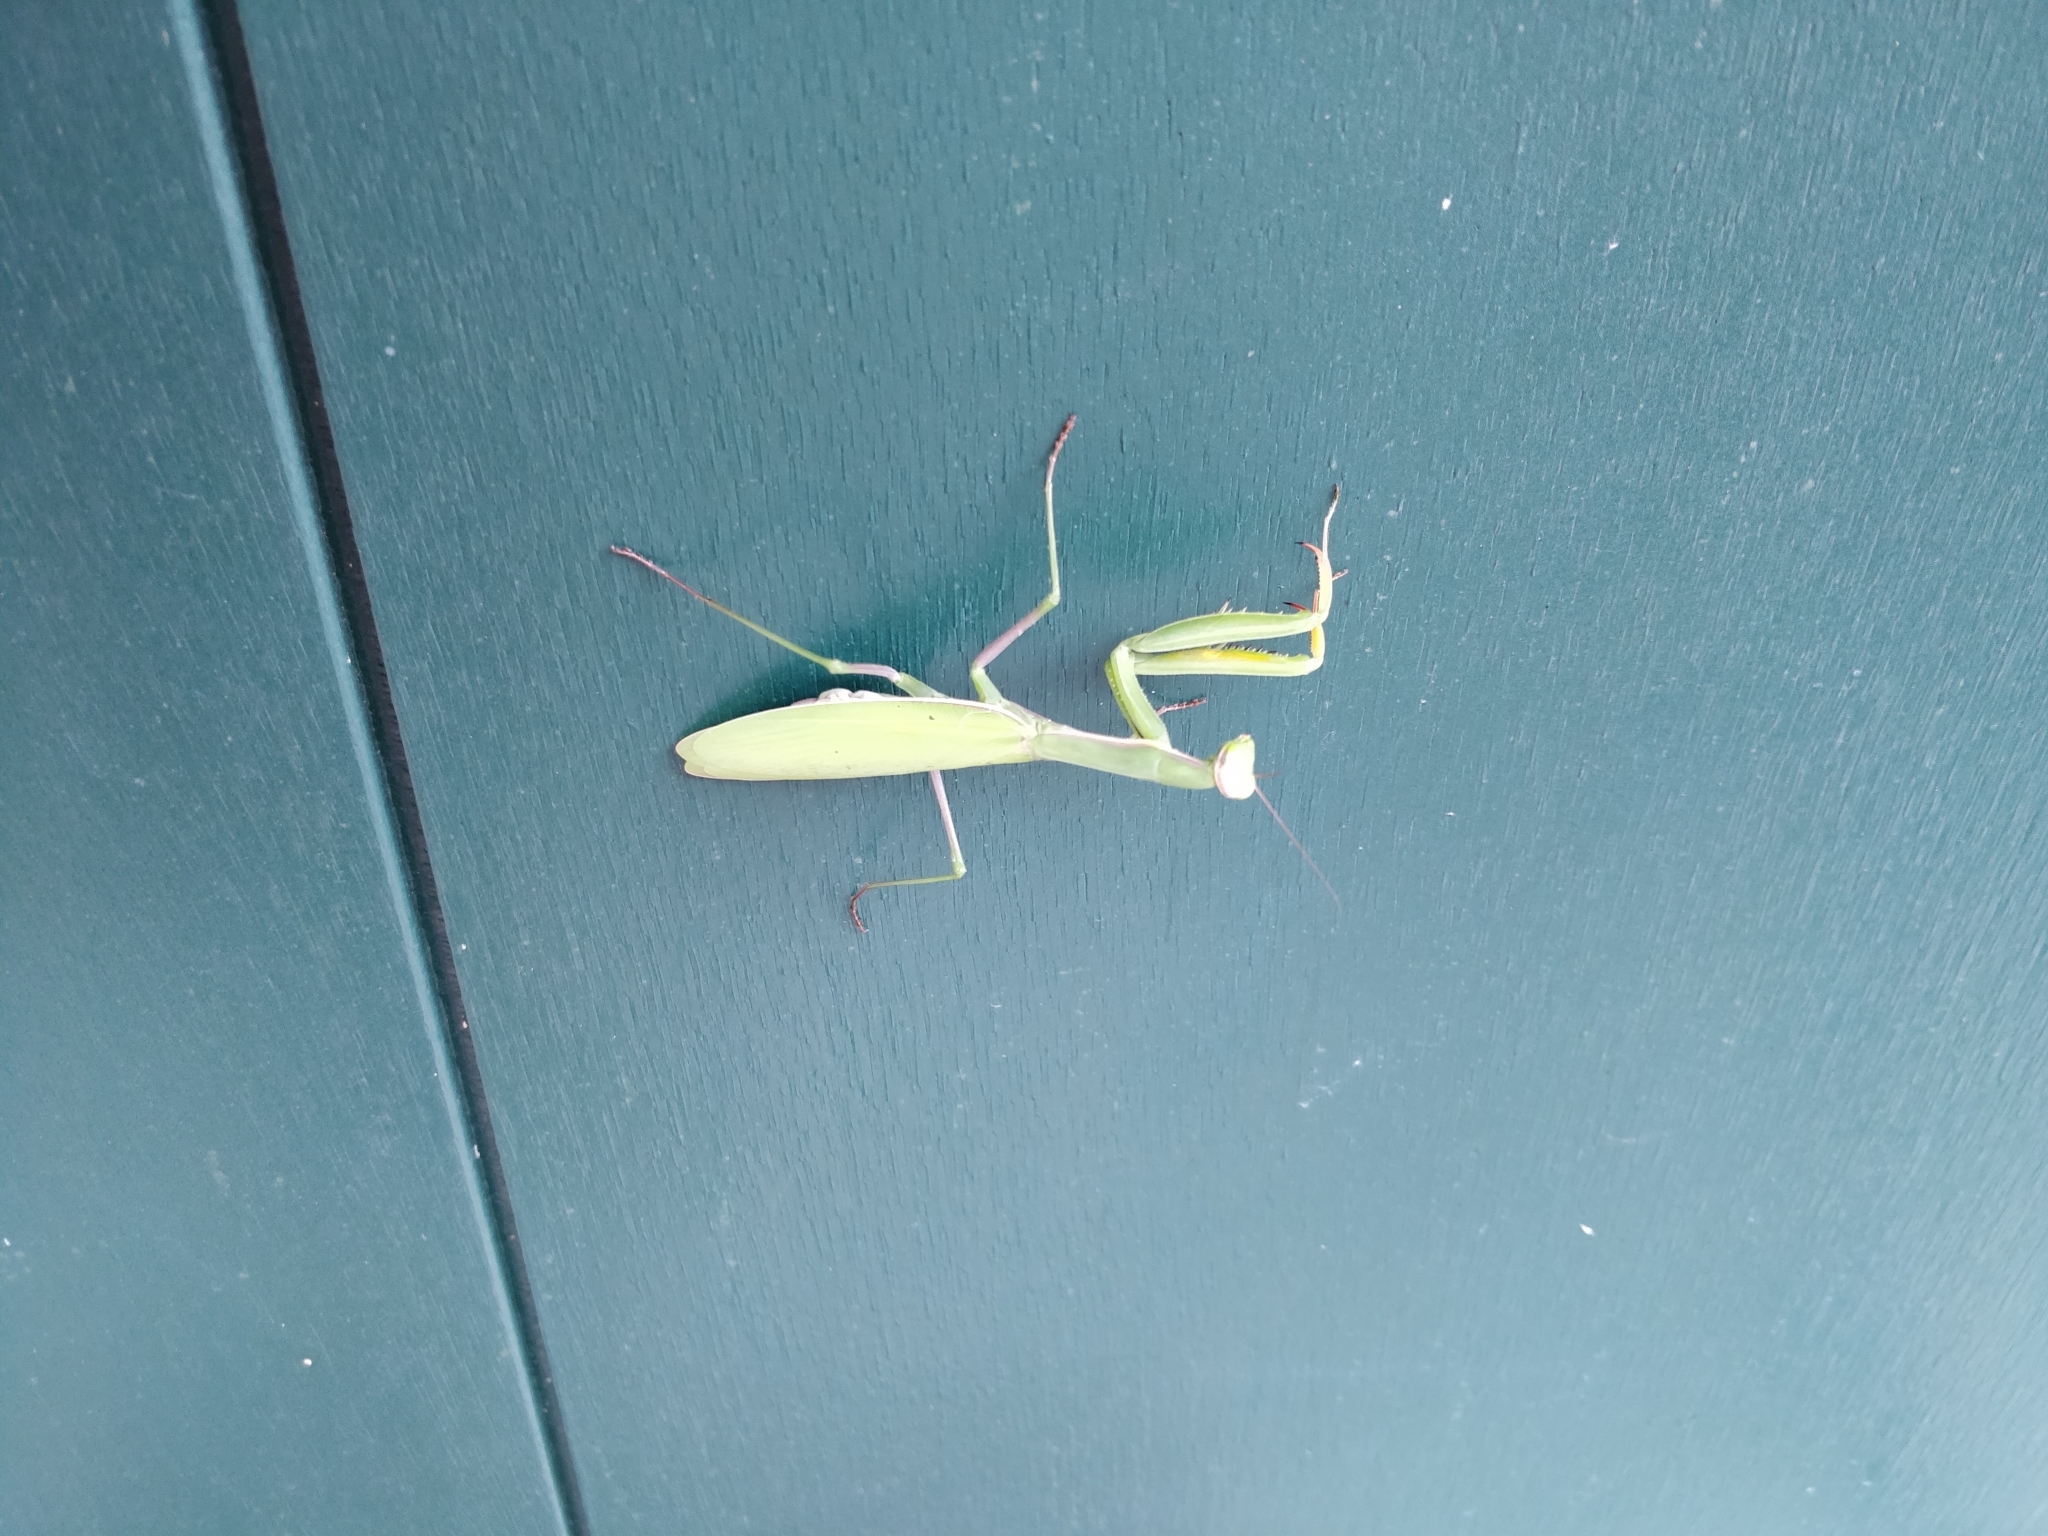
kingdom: Animalia
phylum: Arthropoda
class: Insecta
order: Mantodea
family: Mantidae
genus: Mantis
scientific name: Mantis religiosa
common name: Praying mantis
